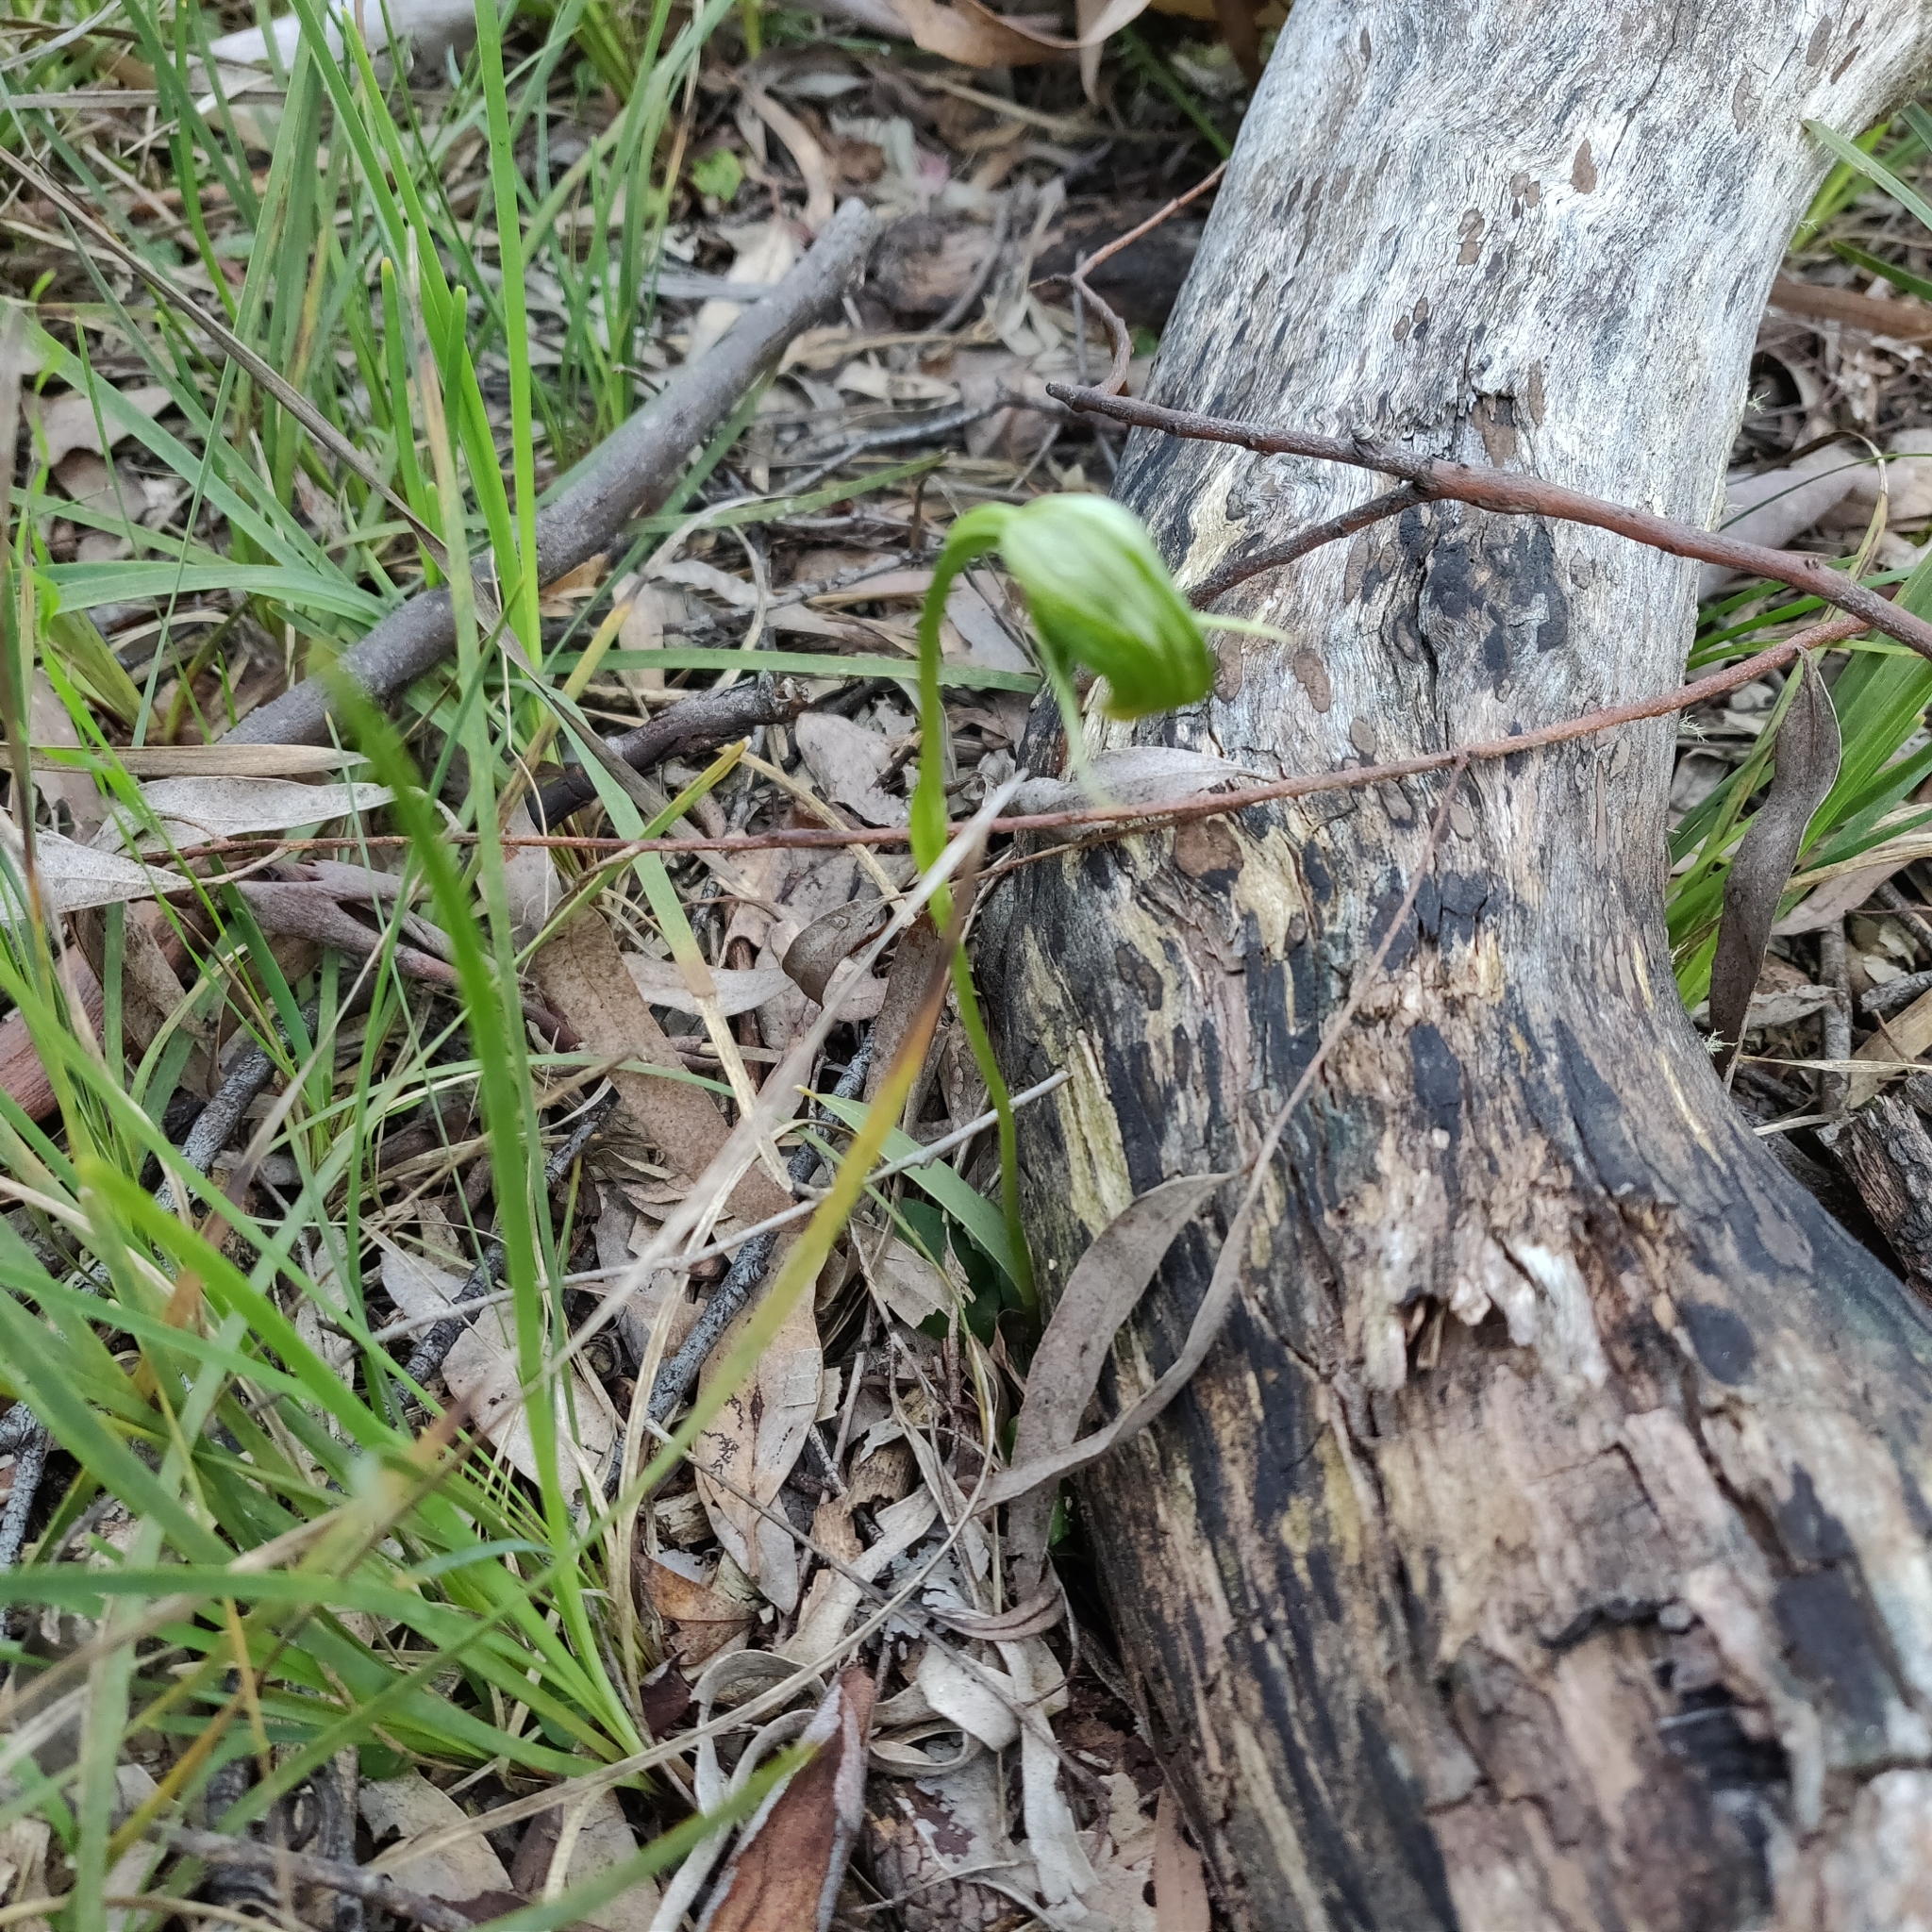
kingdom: Plantae
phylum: Tracheophyta
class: Liliopsida
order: Asparagales
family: Orchidaceae
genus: Pterostylis
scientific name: Pterostylis nutans
